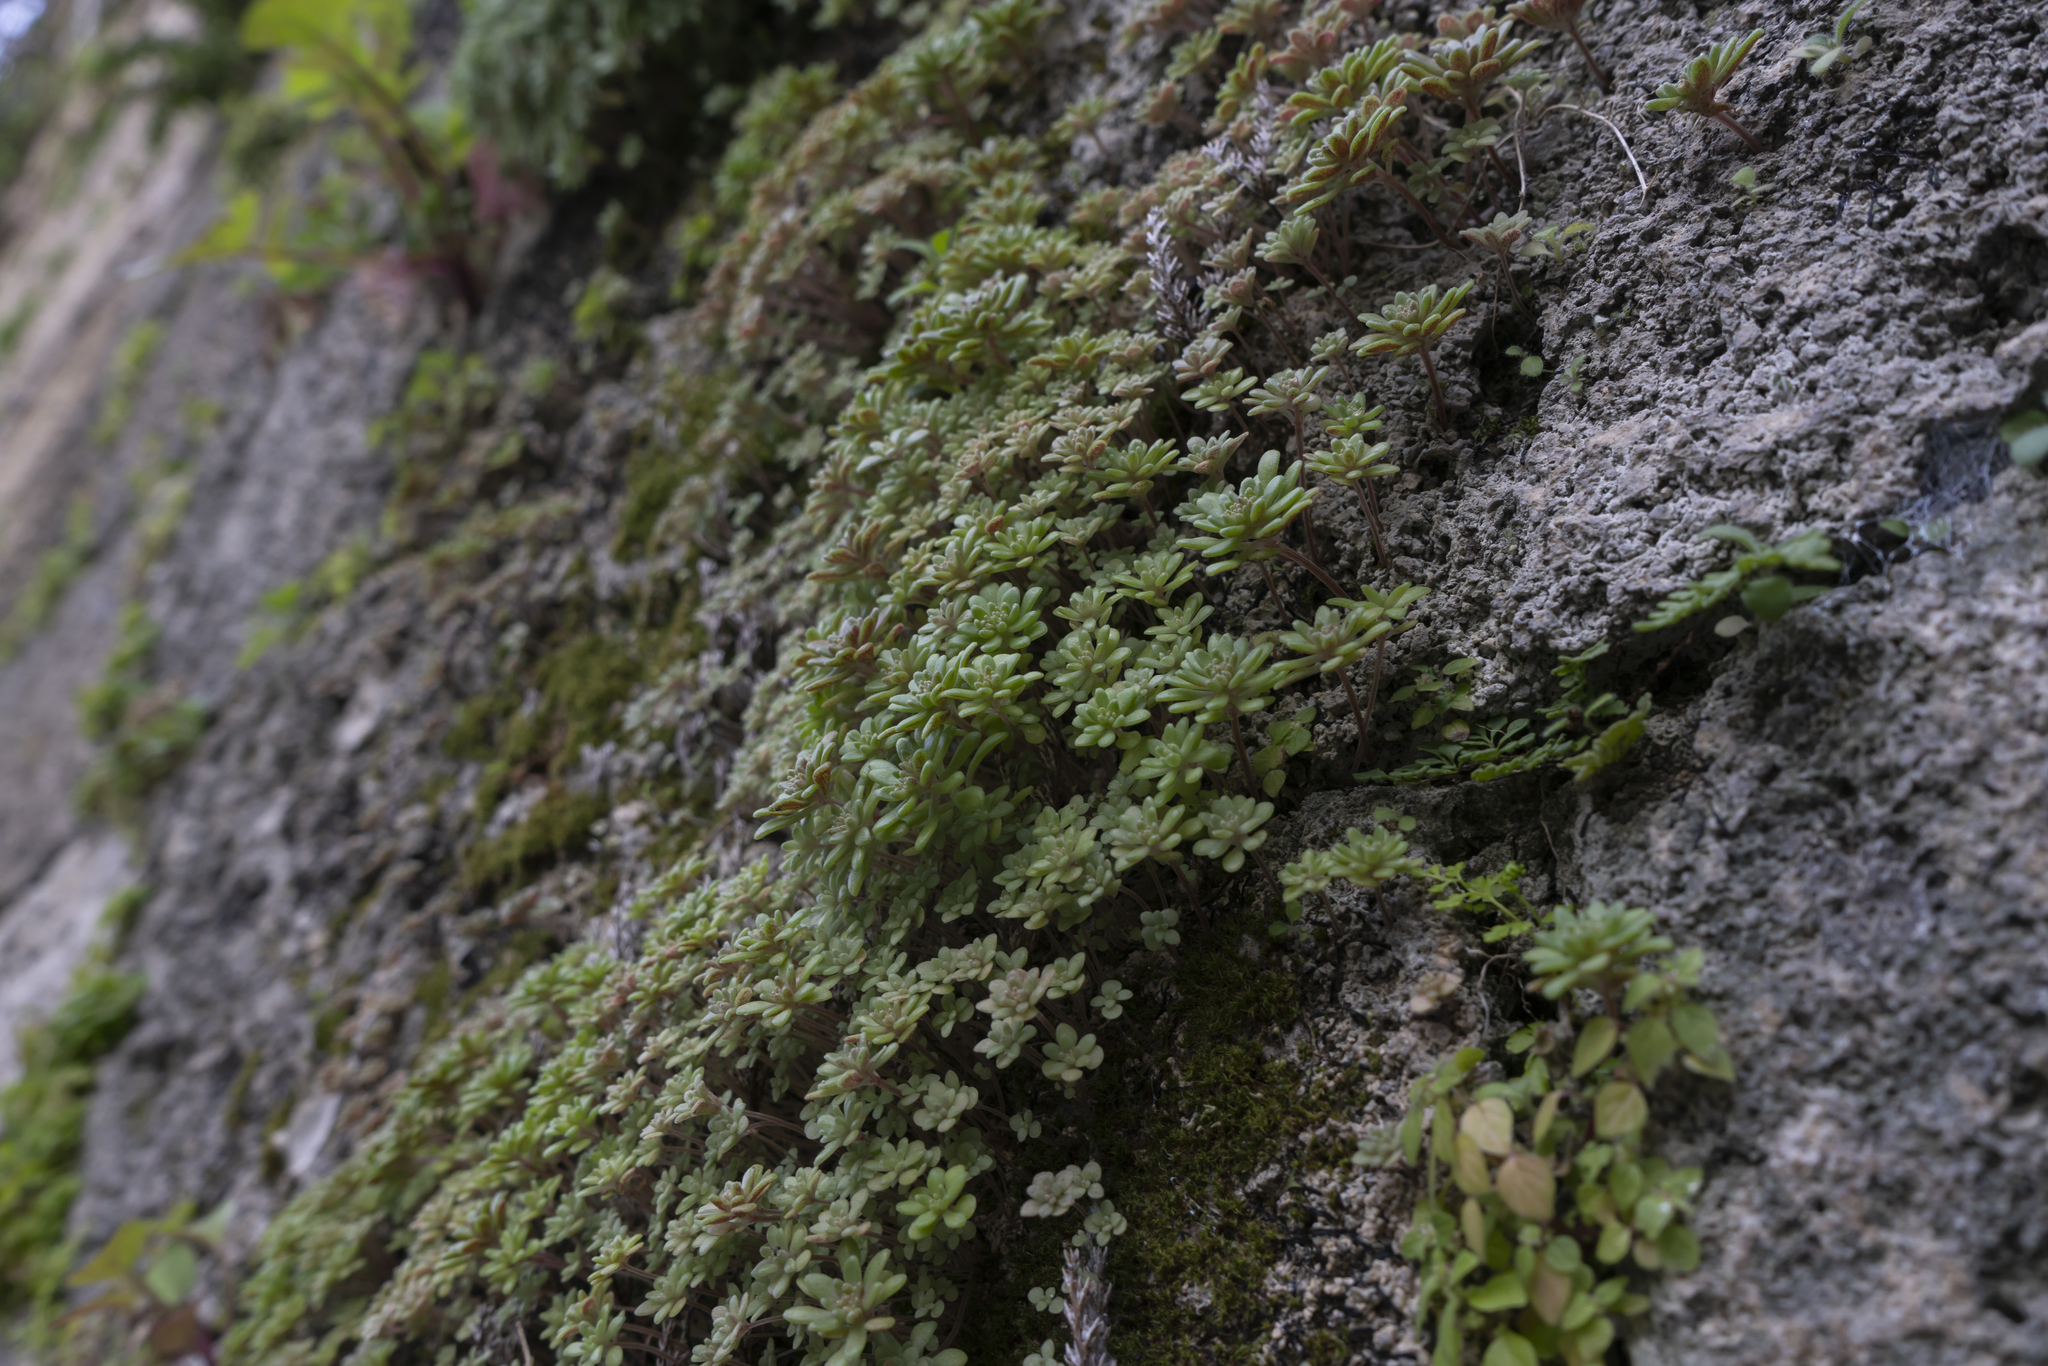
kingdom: Plantae
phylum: Tracheophyta
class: Magnoliopsida
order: Saxifragales
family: Crassulaceae
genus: Sedum
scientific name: Sedum litoreum
